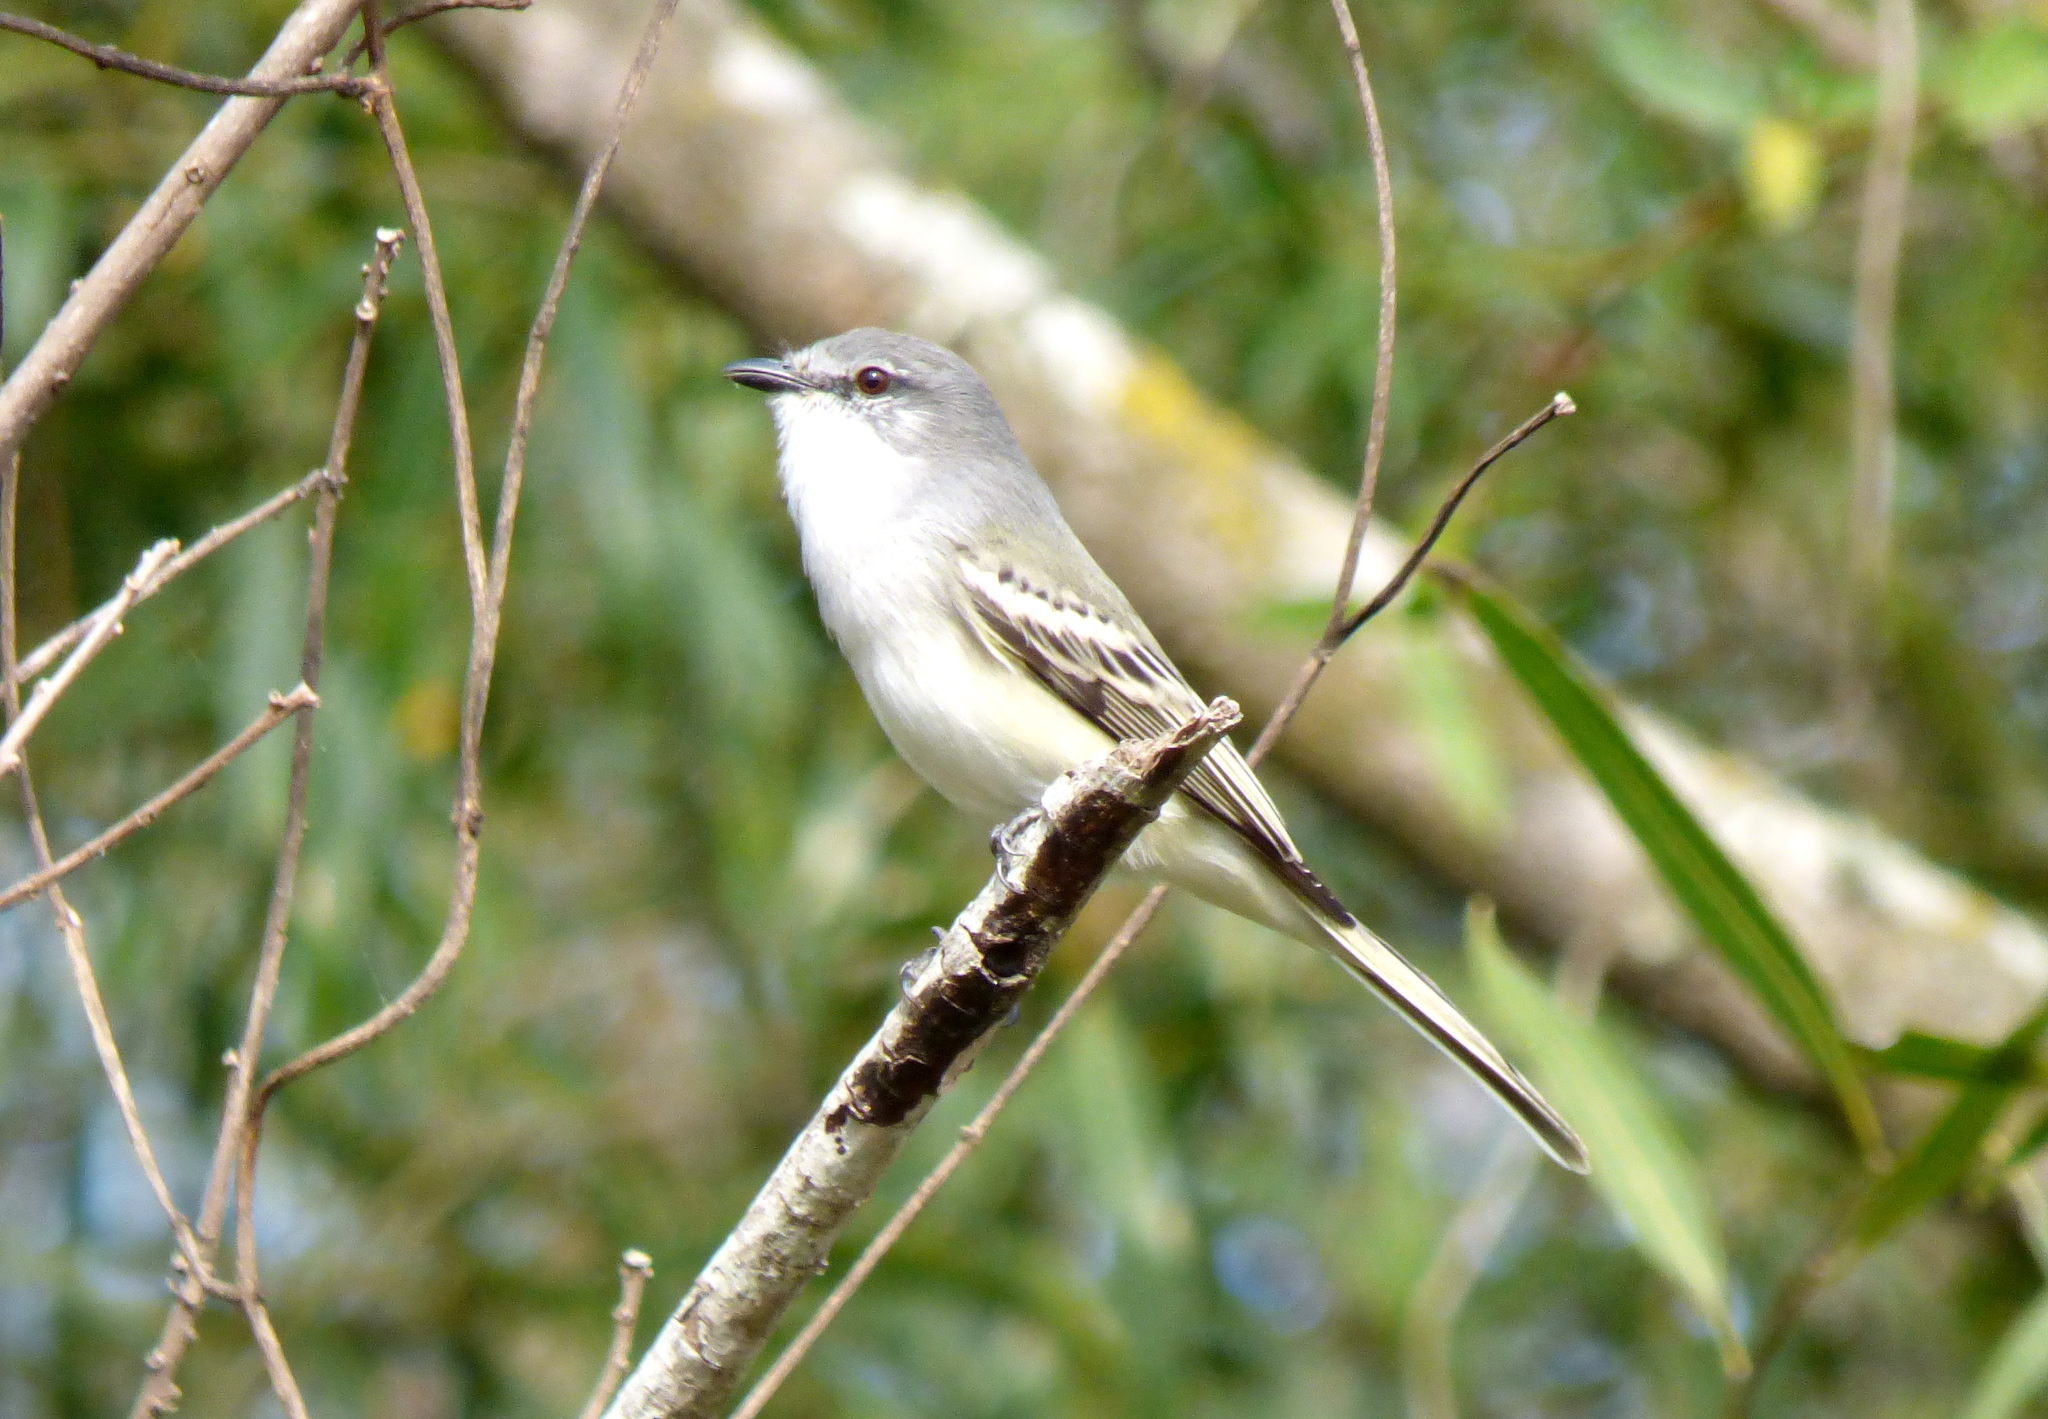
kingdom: Animalia
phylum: Chordata
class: Aves
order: Passeriformes
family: Tyrannidae
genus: Suiriri
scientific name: Suiriri suiriri
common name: Suiriri flycatcher
